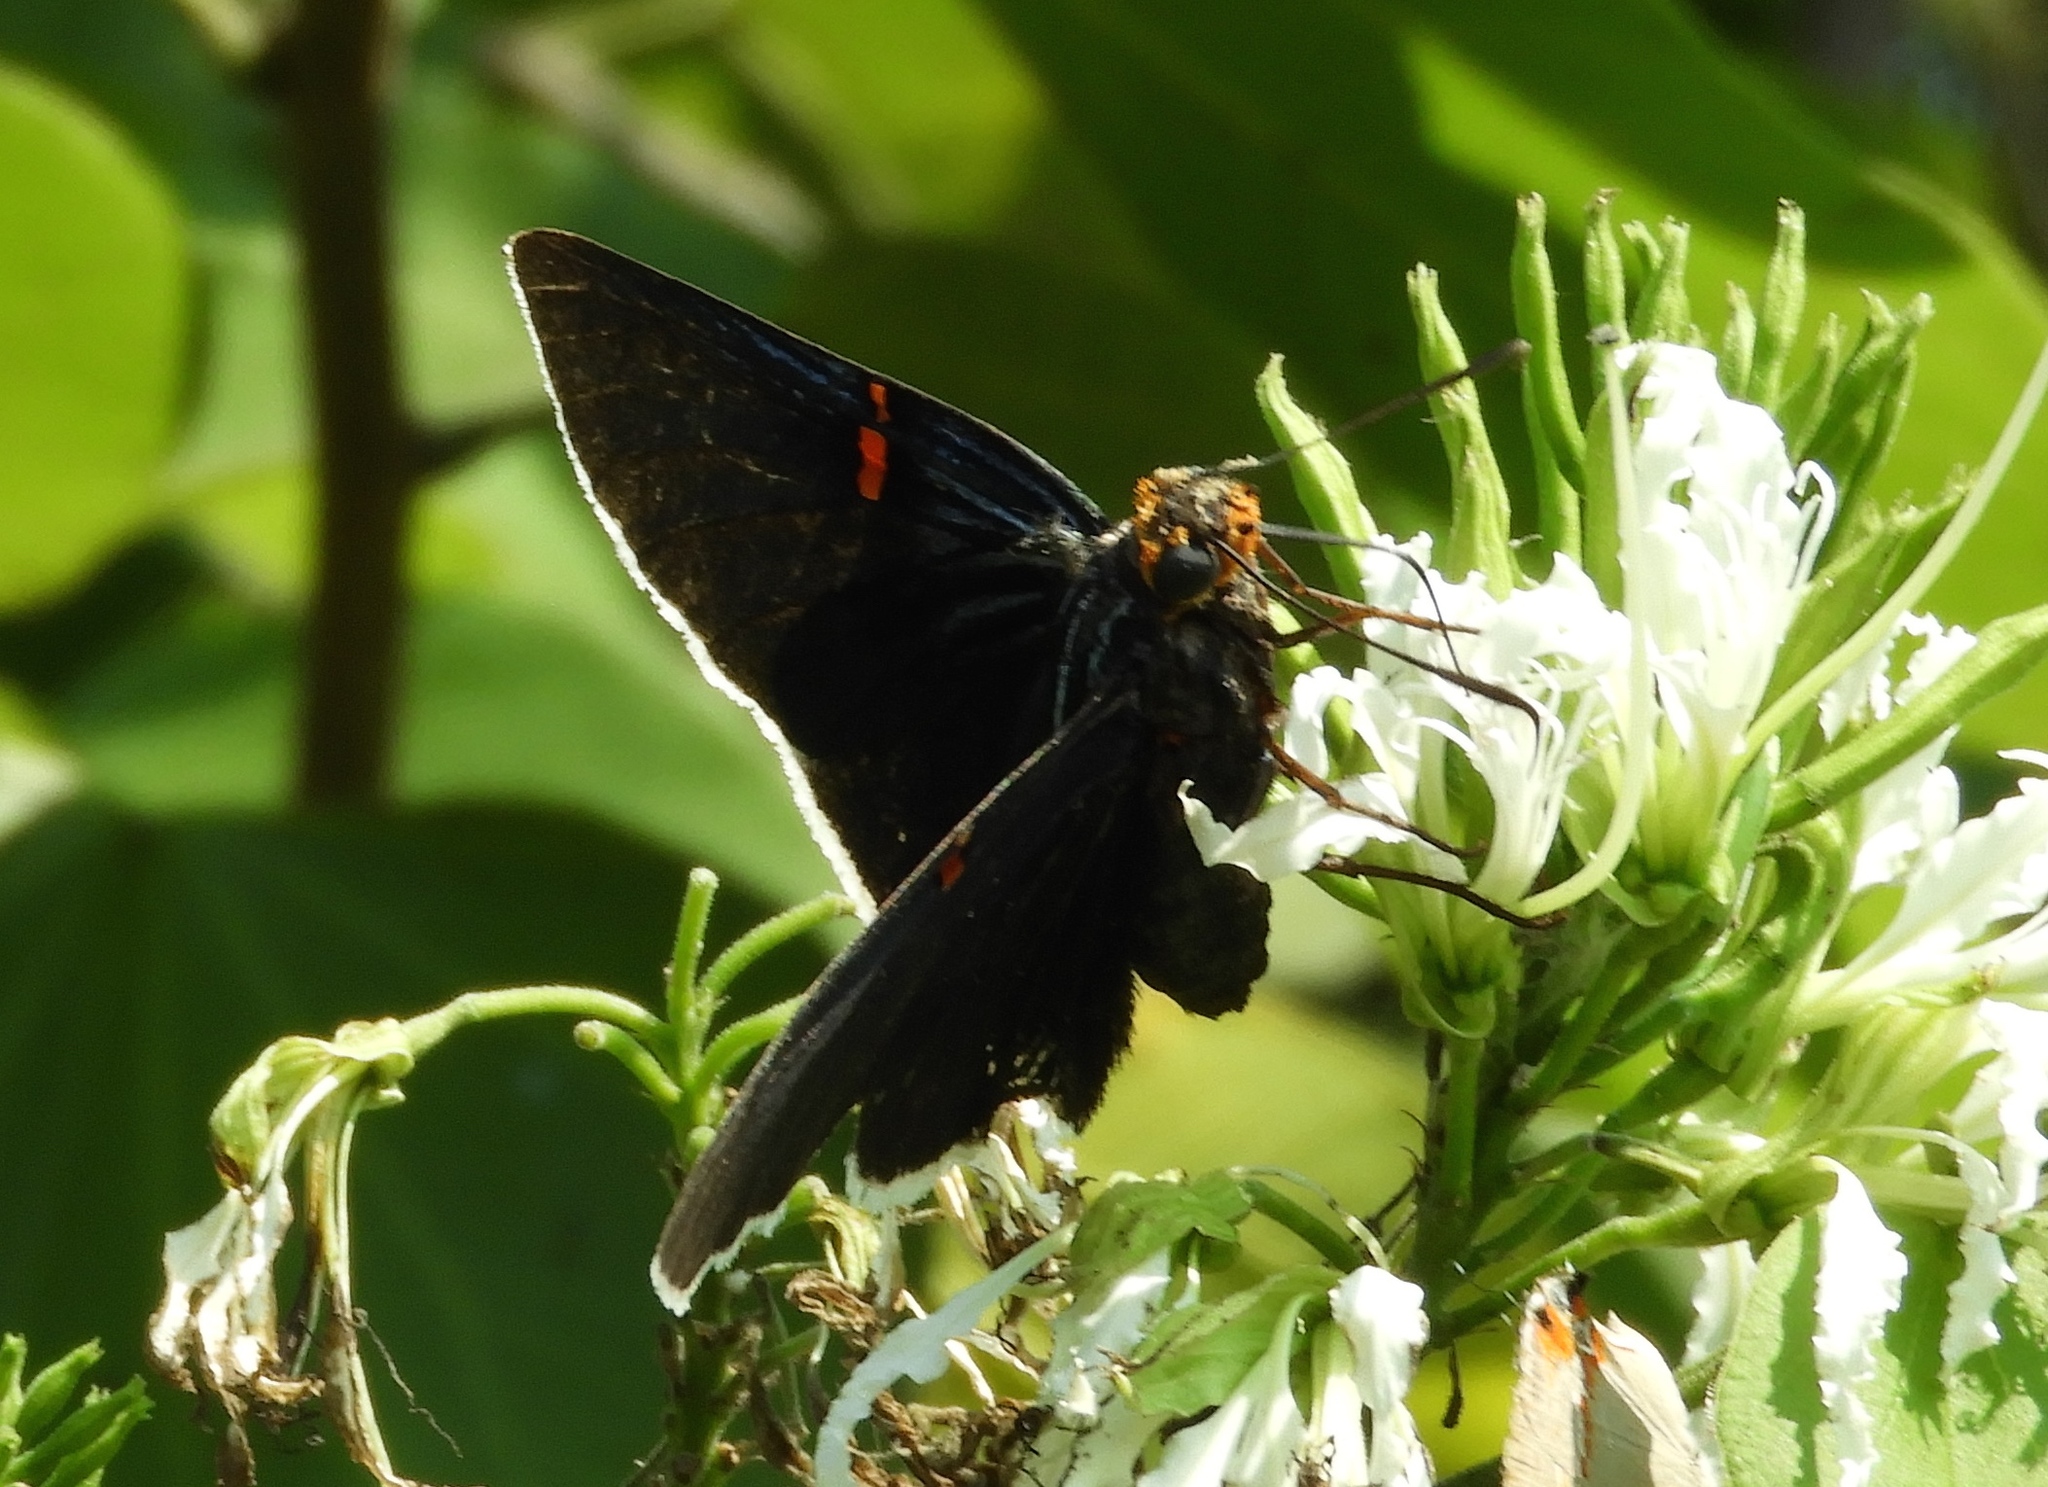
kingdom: Animalia
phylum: Arthropoda
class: Insecta
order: Lepidoptera
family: Hesperiidae
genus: Phocides
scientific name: Phocides lilea
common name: Guava skipper
